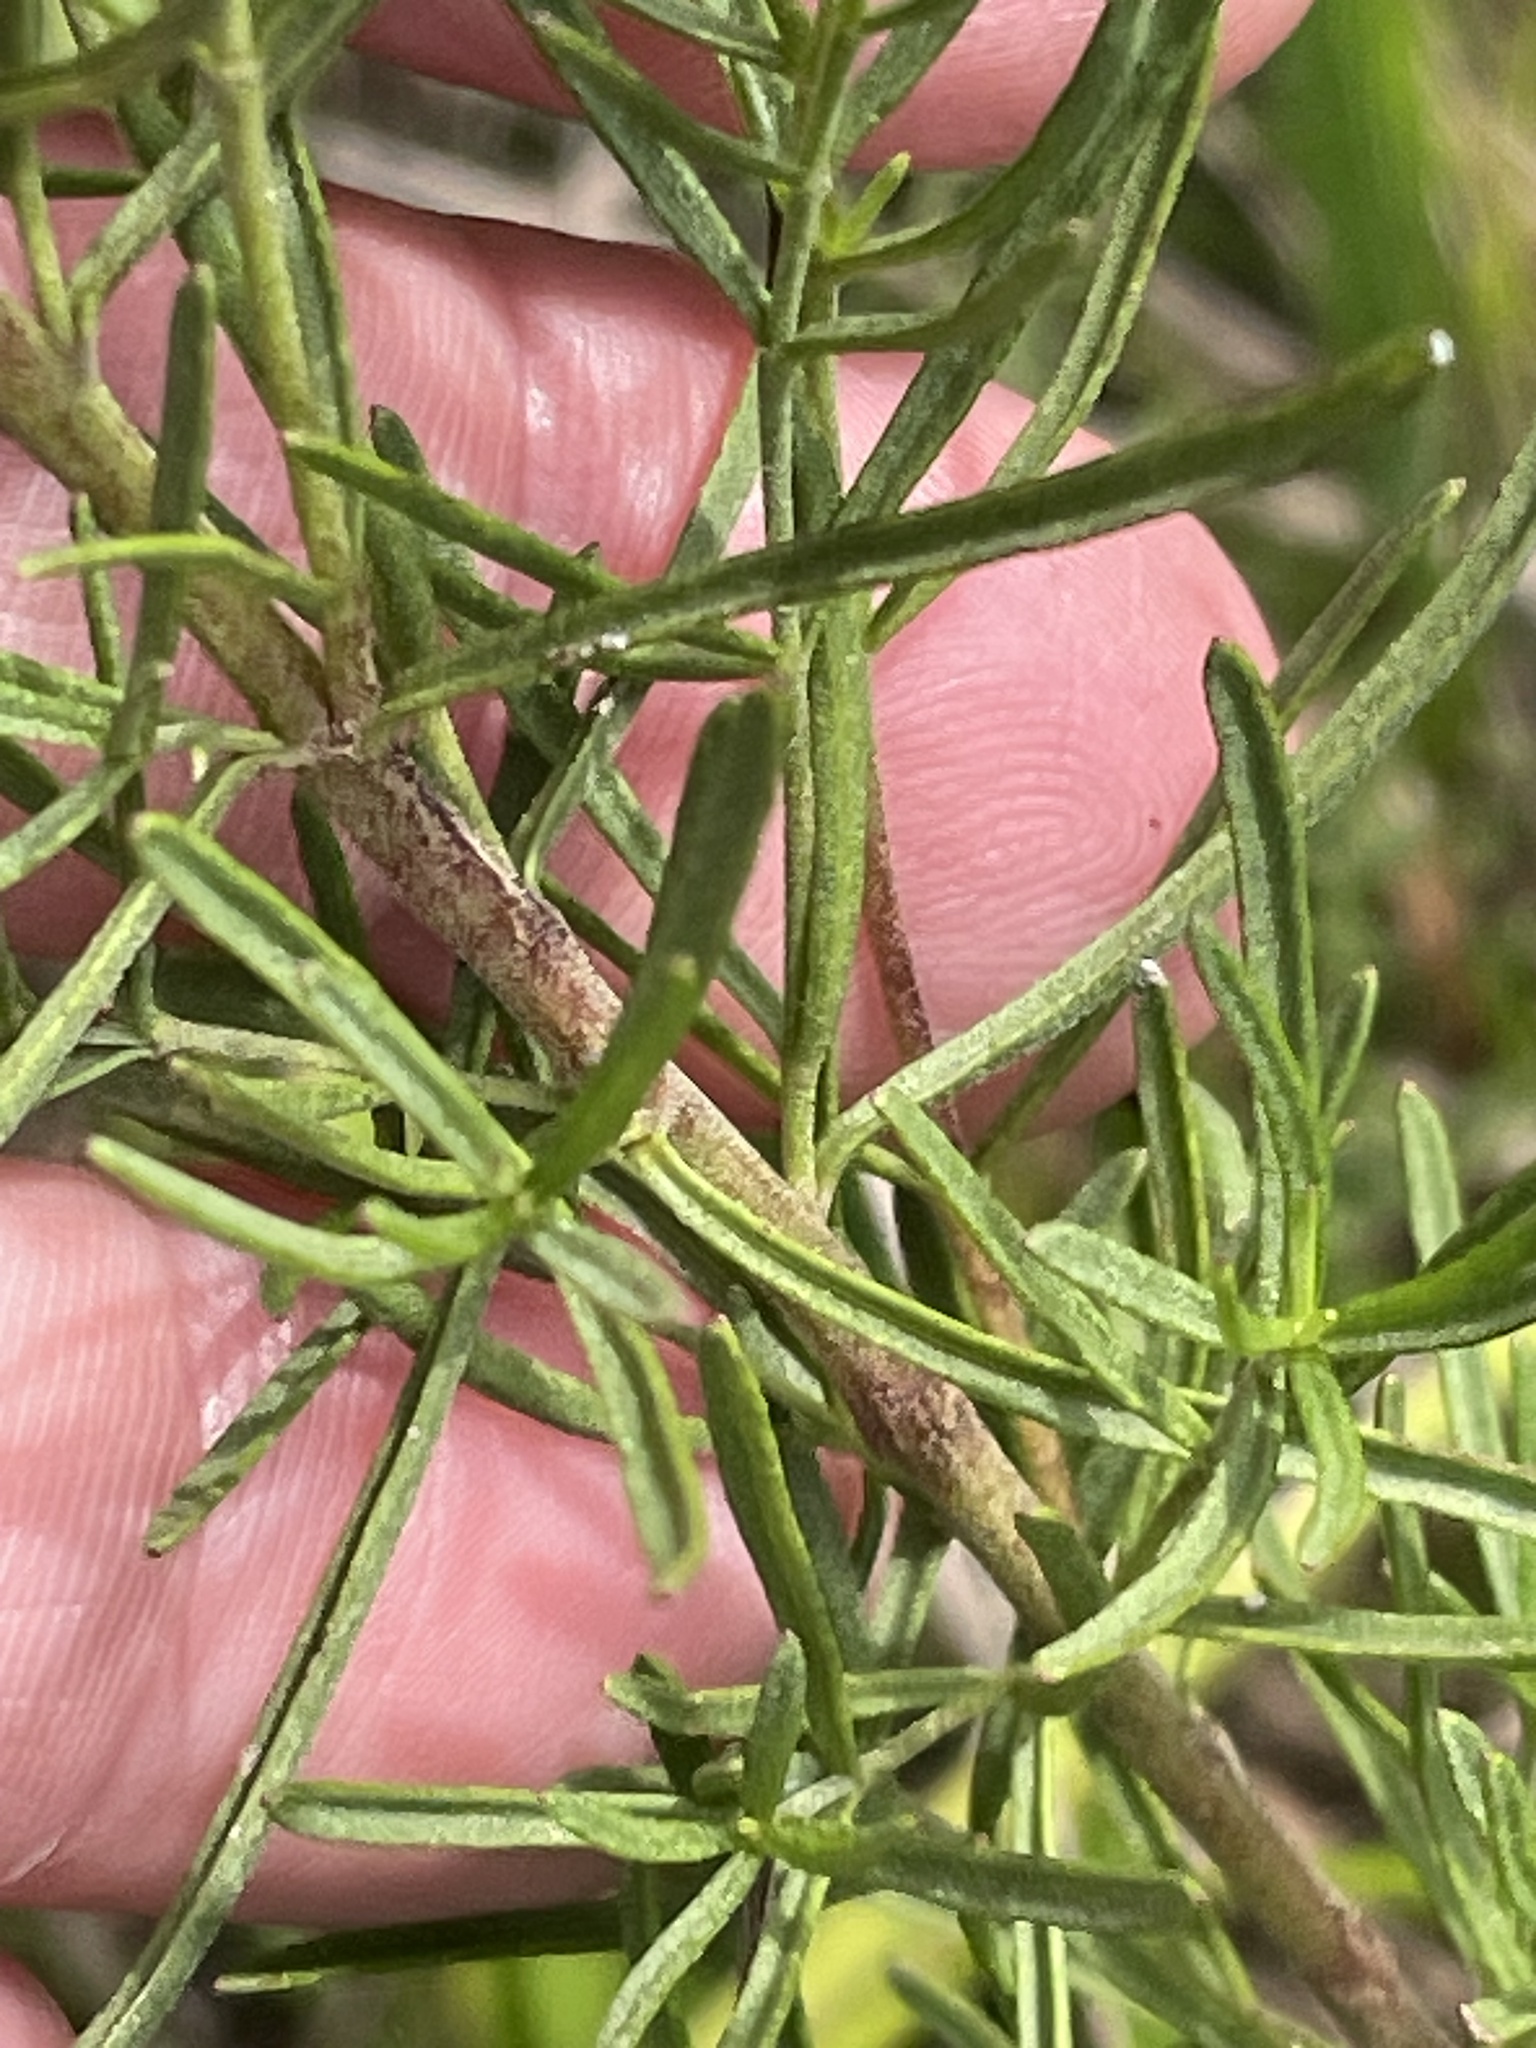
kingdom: Plantae
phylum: Tracheophyta
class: Magnoliopsida
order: Asterales
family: Asteraceae
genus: Eupatorium
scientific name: Eupatorium hyssopifolium
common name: Hyssop-leaf thoroughwort
